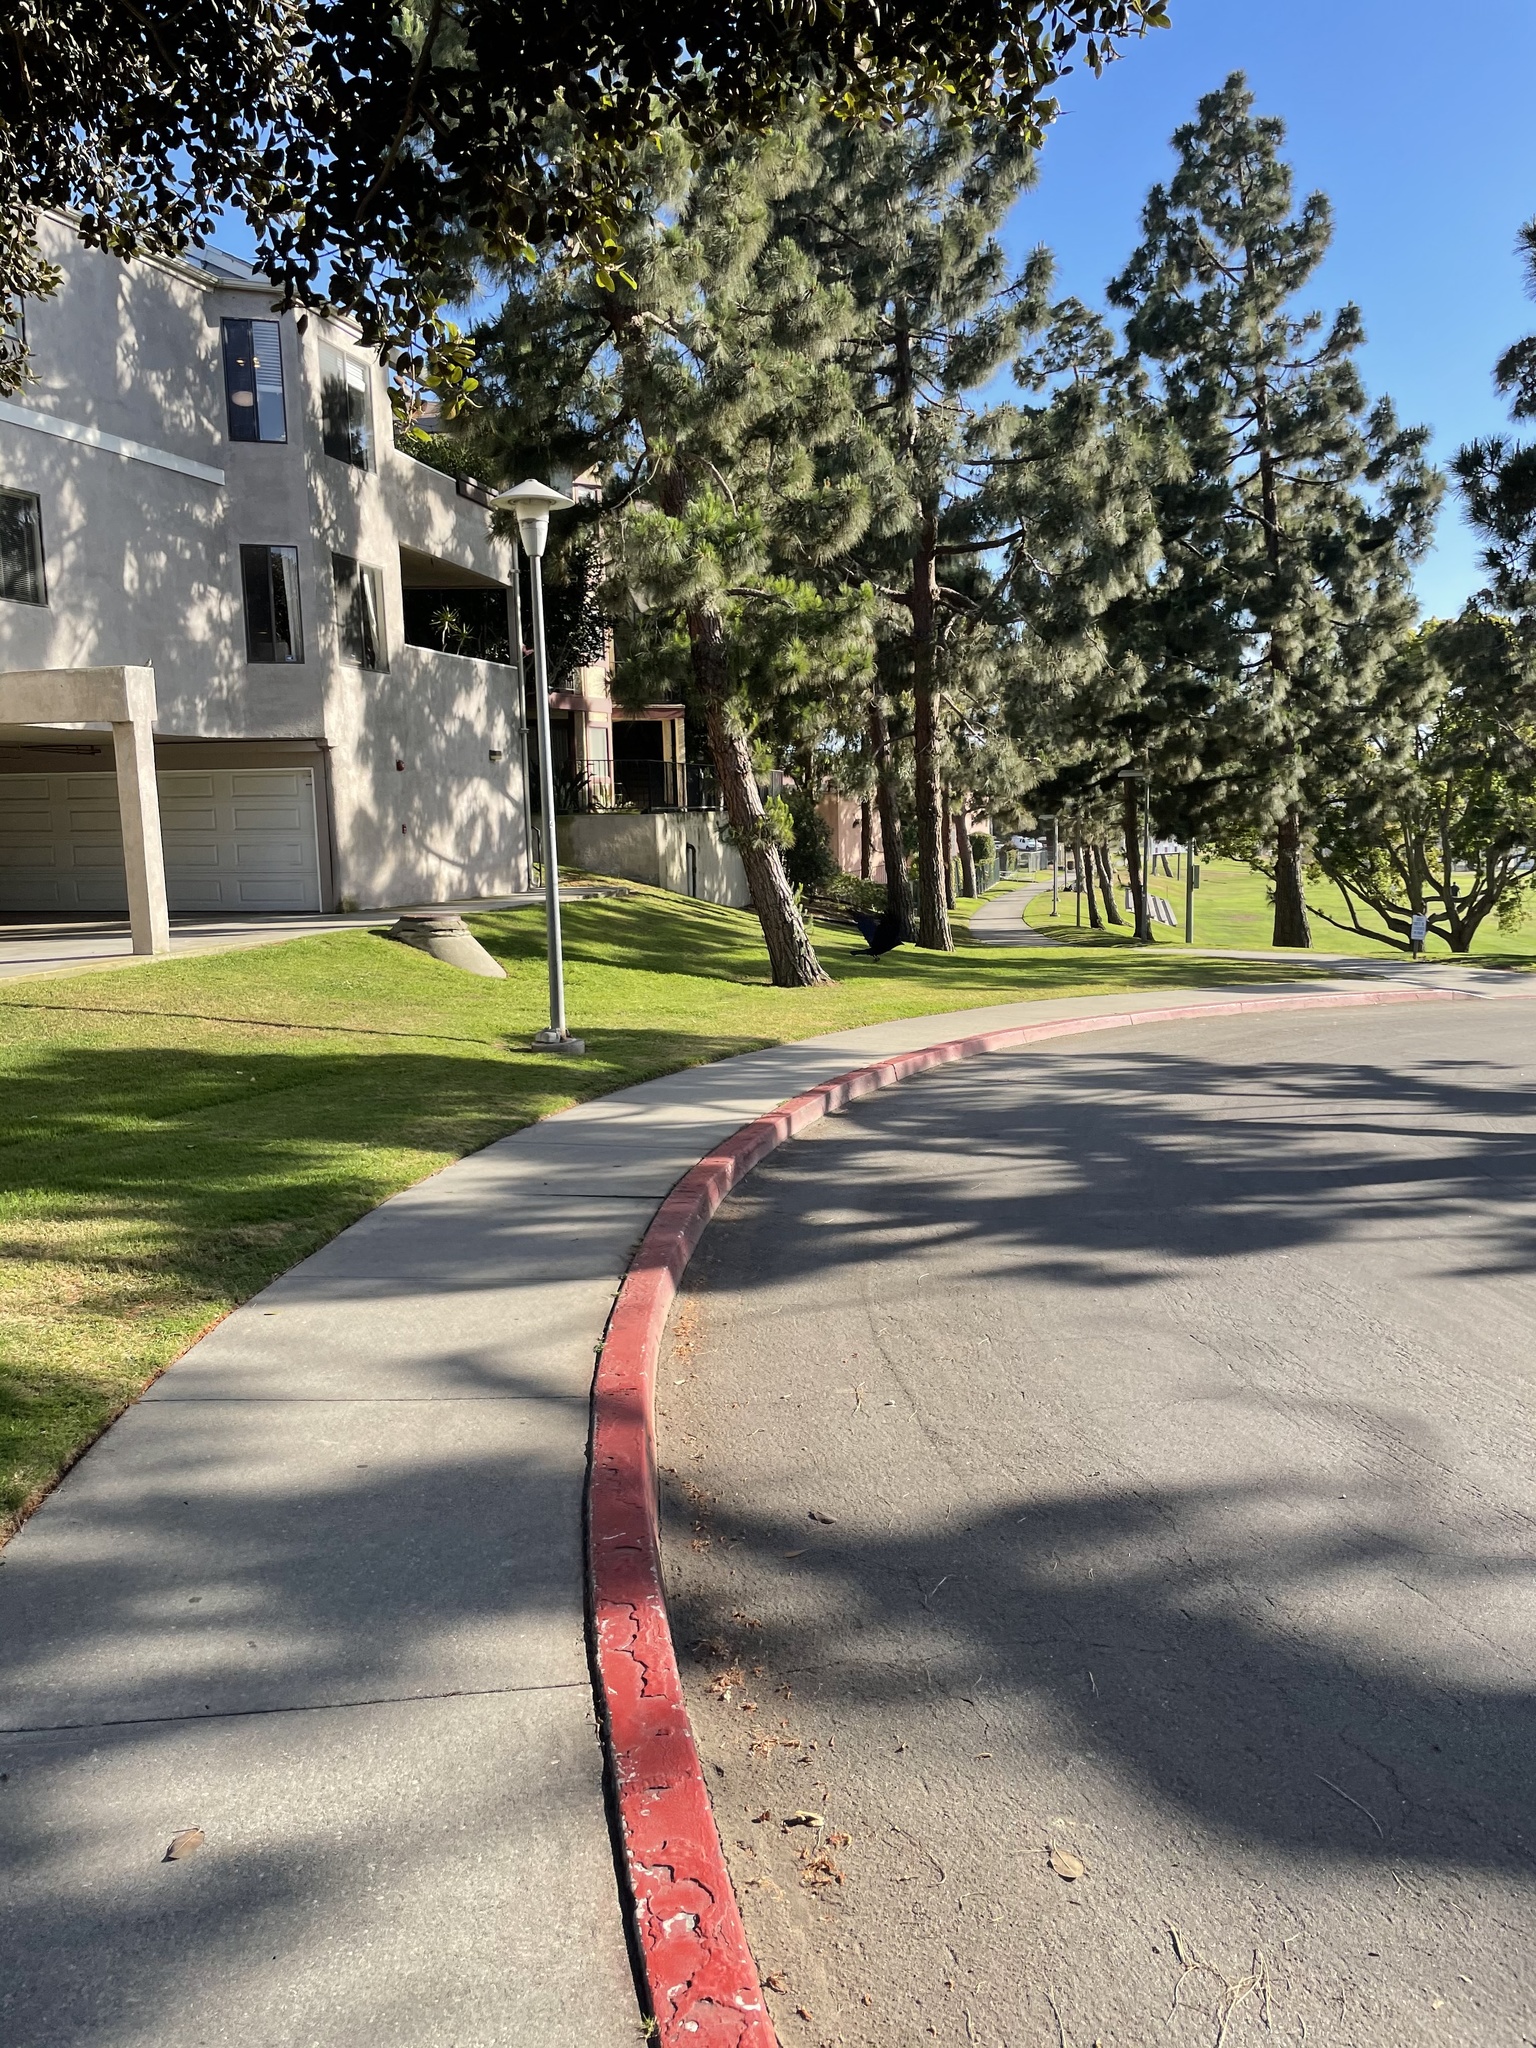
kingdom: Animalia
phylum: Chordata
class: Aves
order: Passeriformes
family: Corvidae
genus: Corvus
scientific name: Corvus brachyrhynchos
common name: American crow
